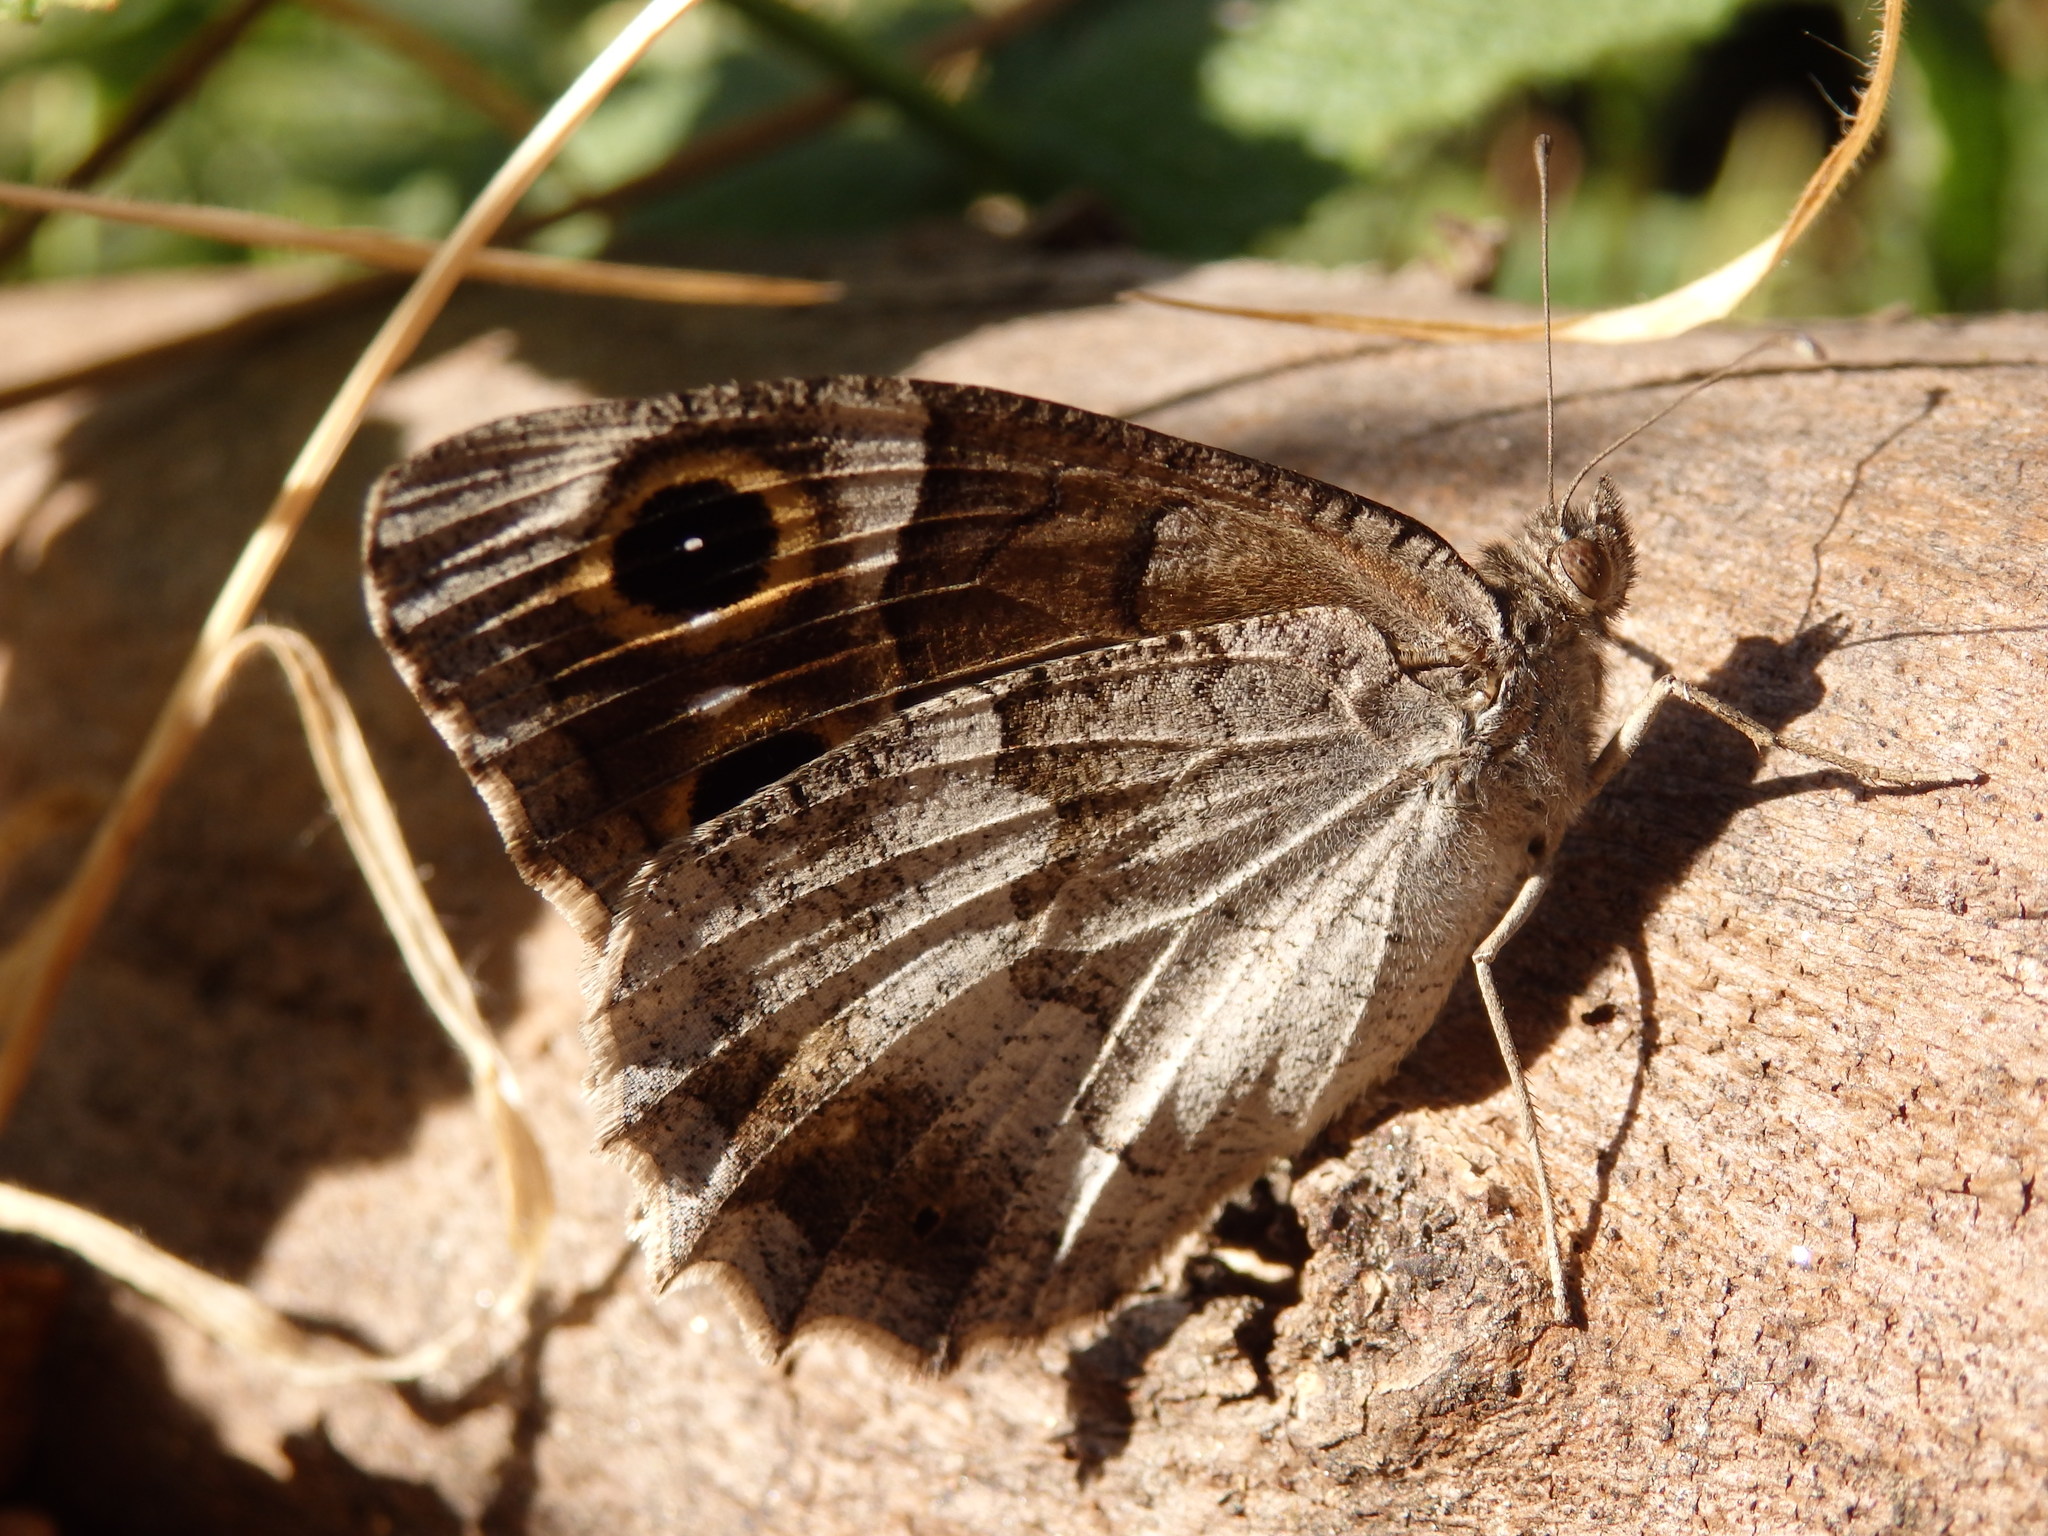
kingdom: Animalia
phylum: Arthropoda
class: Insecta
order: Lepidoptera
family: Nymphalidae
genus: Hipparchia
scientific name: Hipparchia statilinus
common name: Tree grayling
